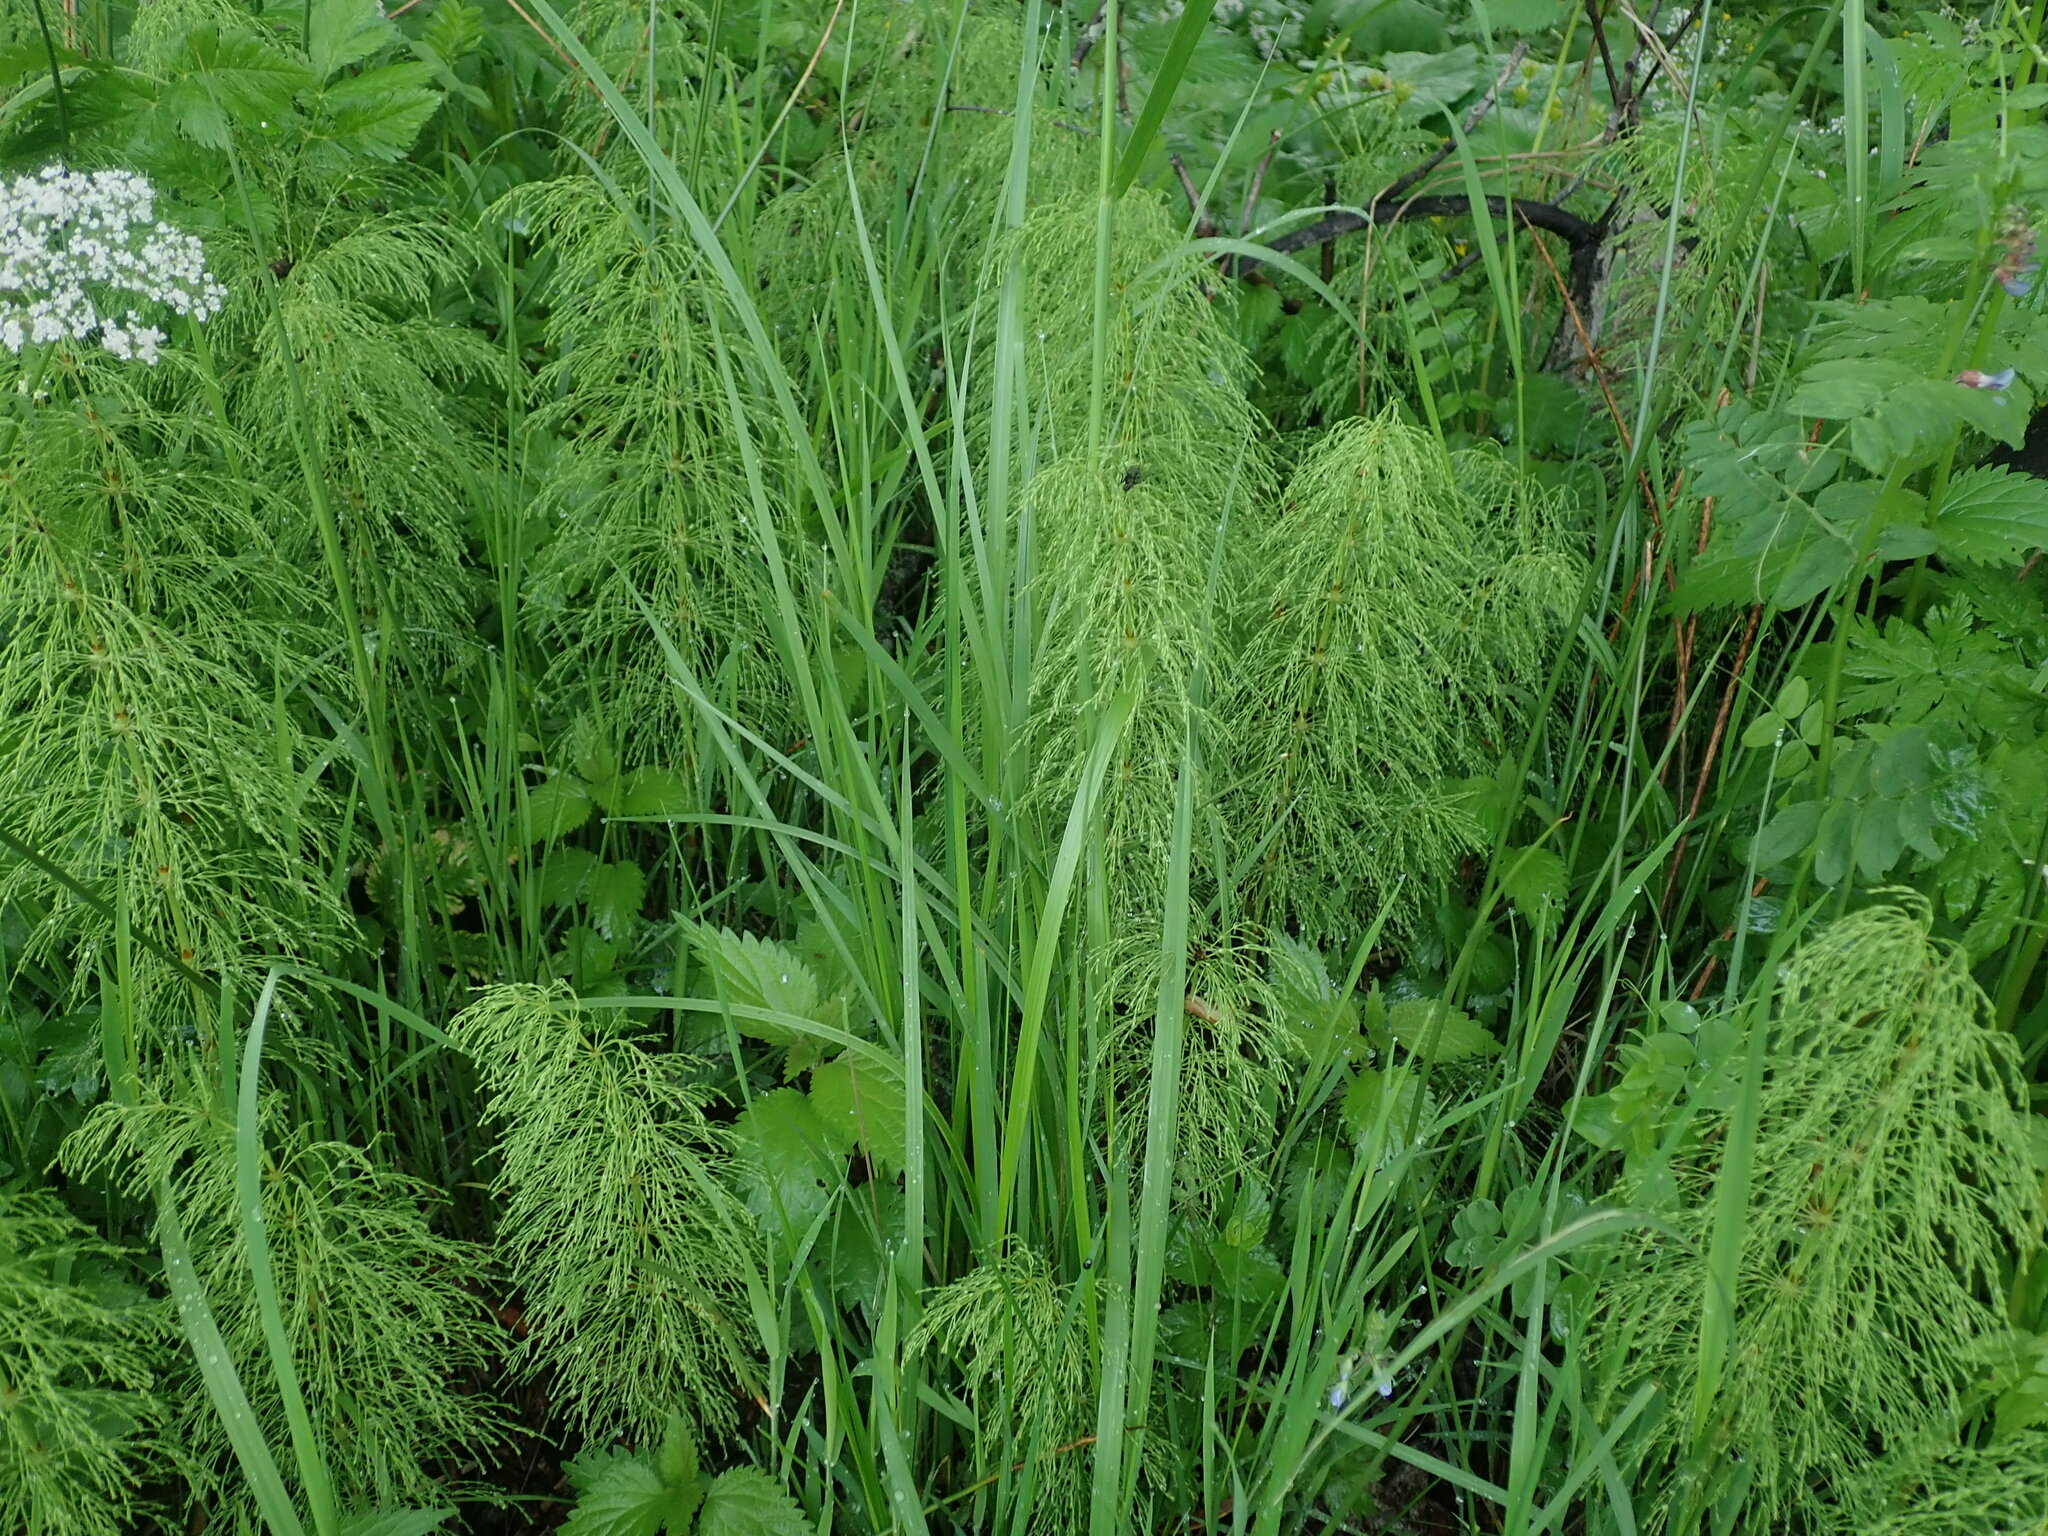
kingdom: Plantae
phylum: Tracheophyta
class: Polypodiopsida
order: Equisetales
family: Equisetaceae
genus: Equisetum
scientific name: Equisetum sylvaticum
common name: Wood horsetail
